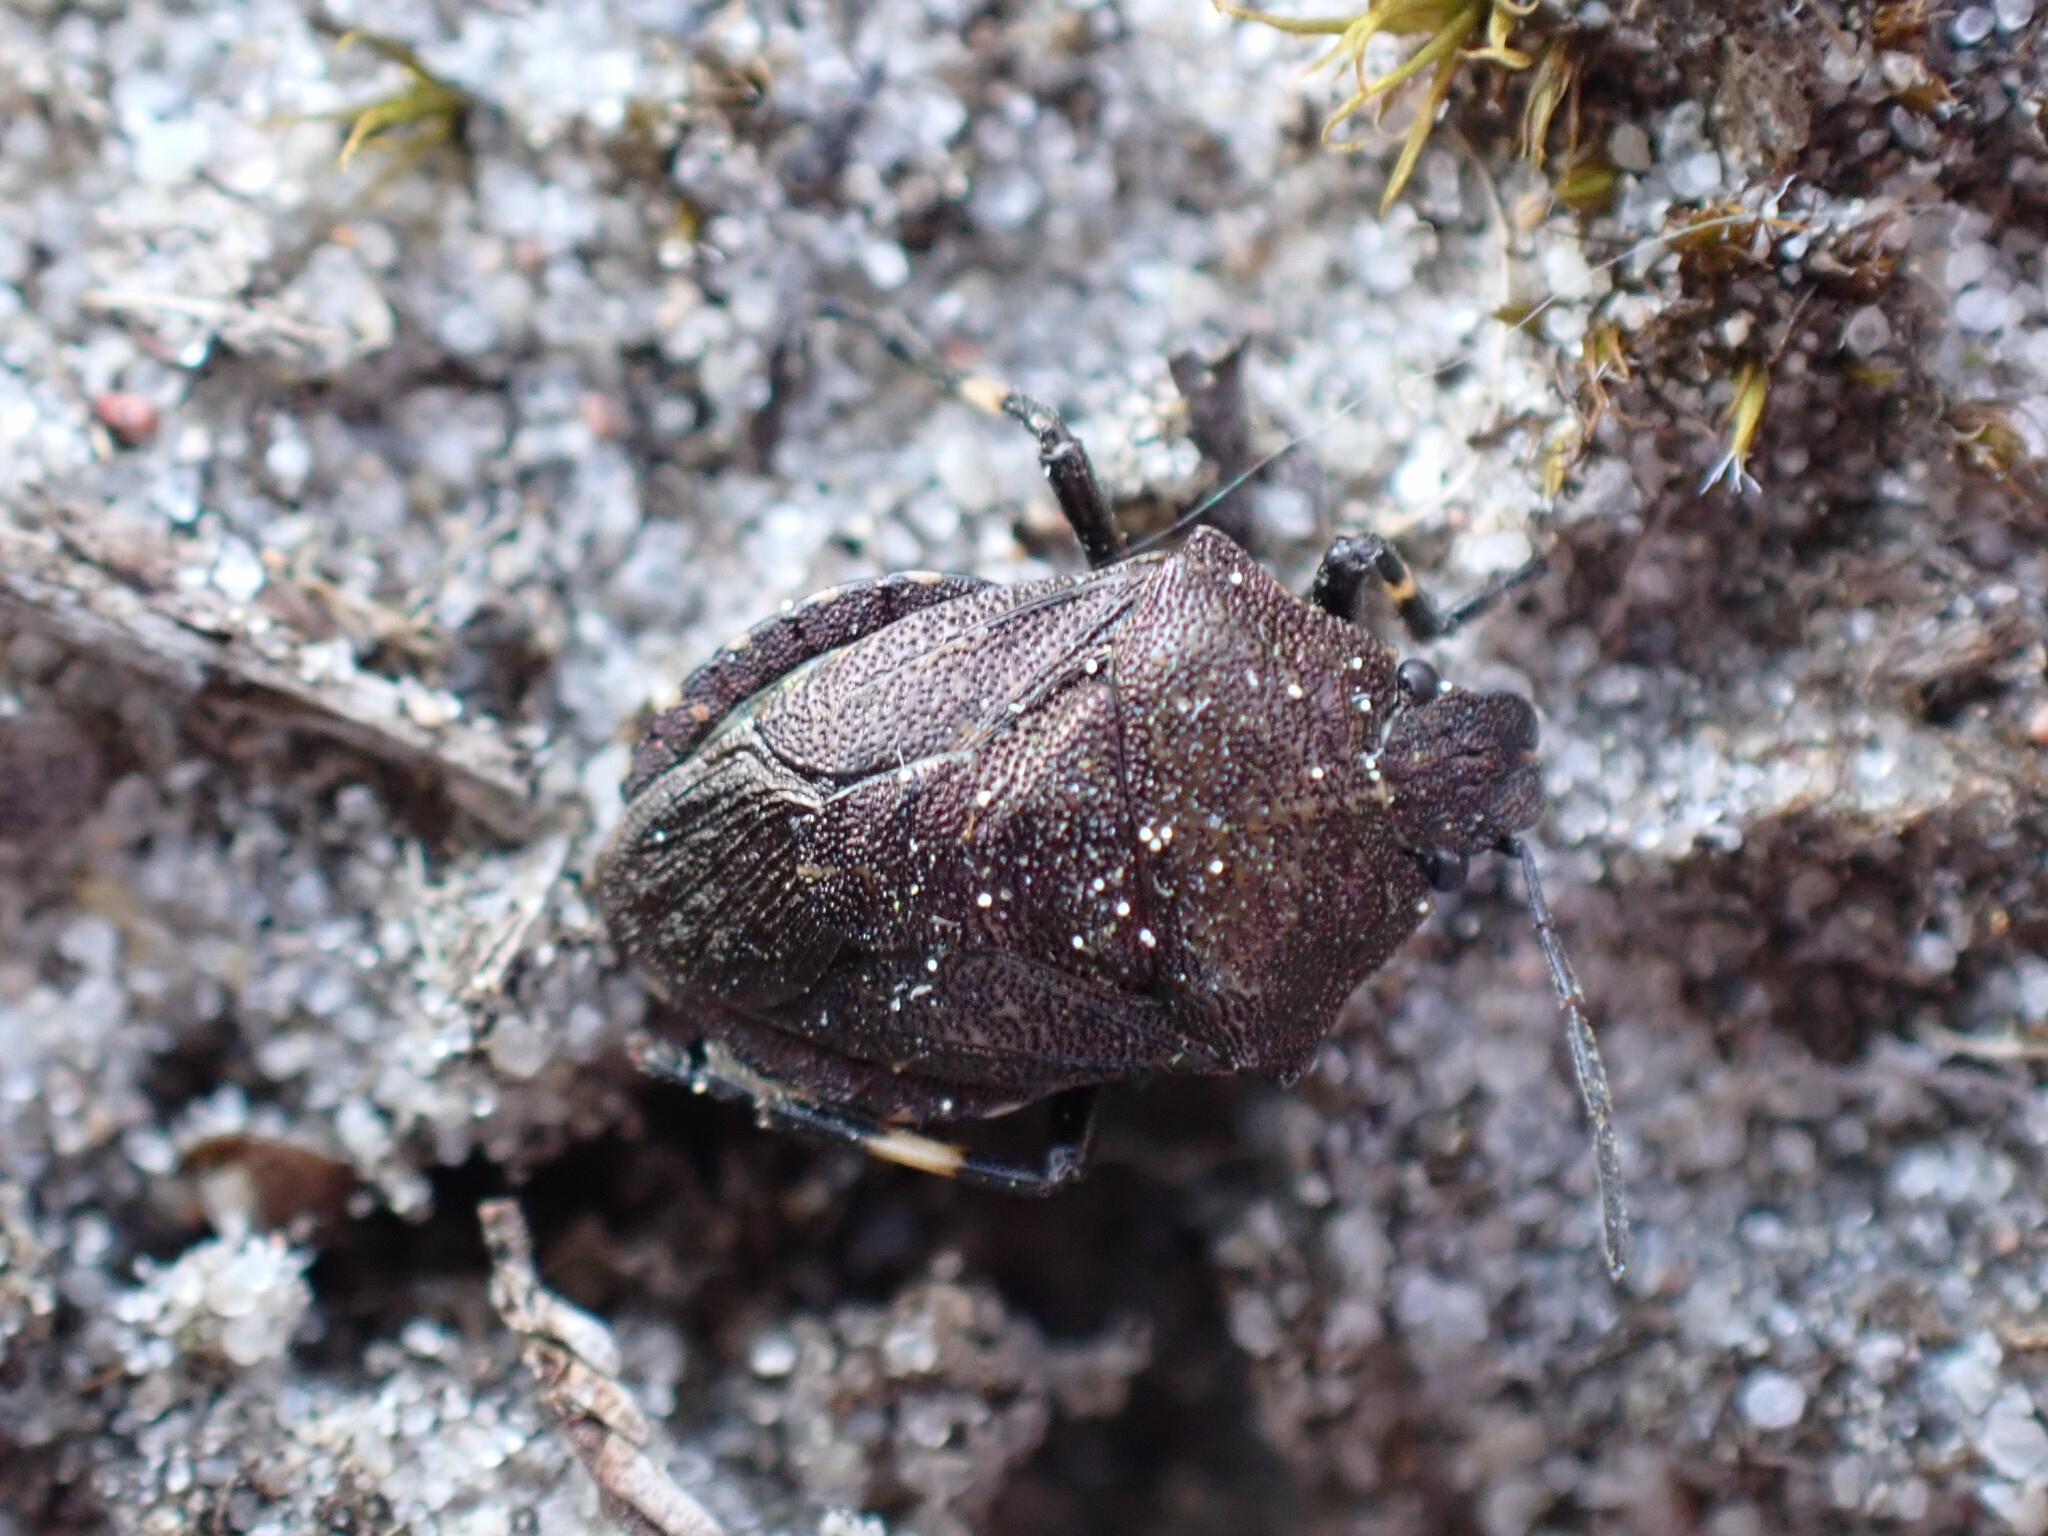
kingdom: Animalia
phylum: Arthropoda
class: Insecta
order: Hemiptera
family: Pentatomidae
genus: Rhacognathus
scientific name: Rhacognathus punctatus
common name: Heather bug
